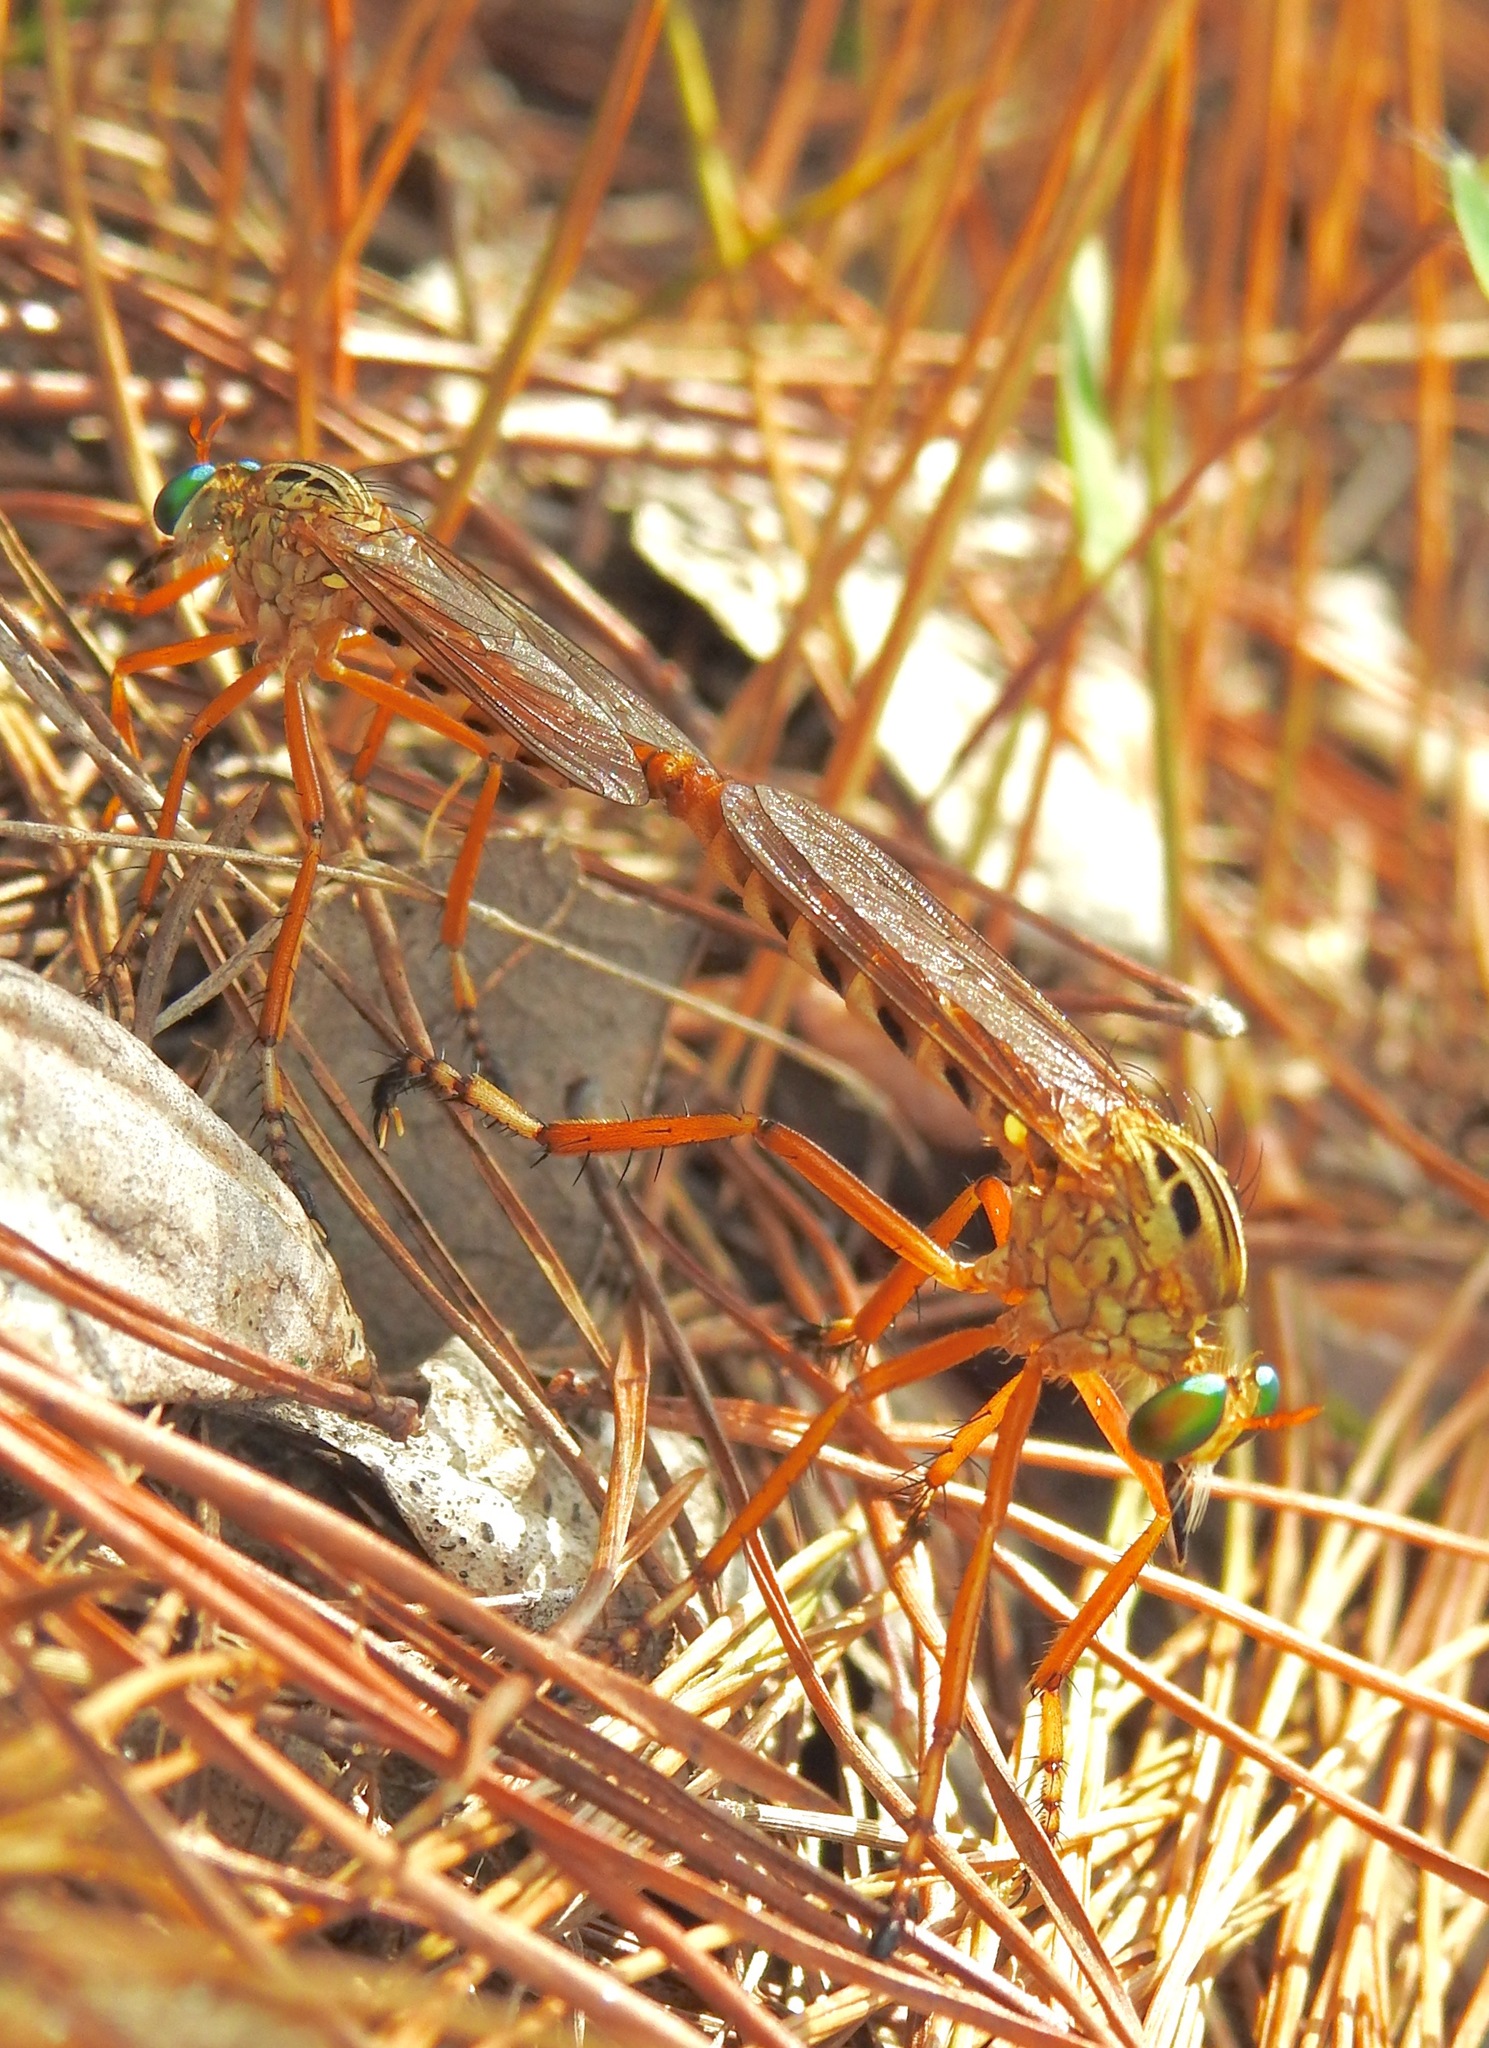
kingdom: Animalia
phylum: Arthropoda
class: Insecta
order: Diptera
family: Asilidae
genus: Diogmites
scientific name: Diogmites esuriens
